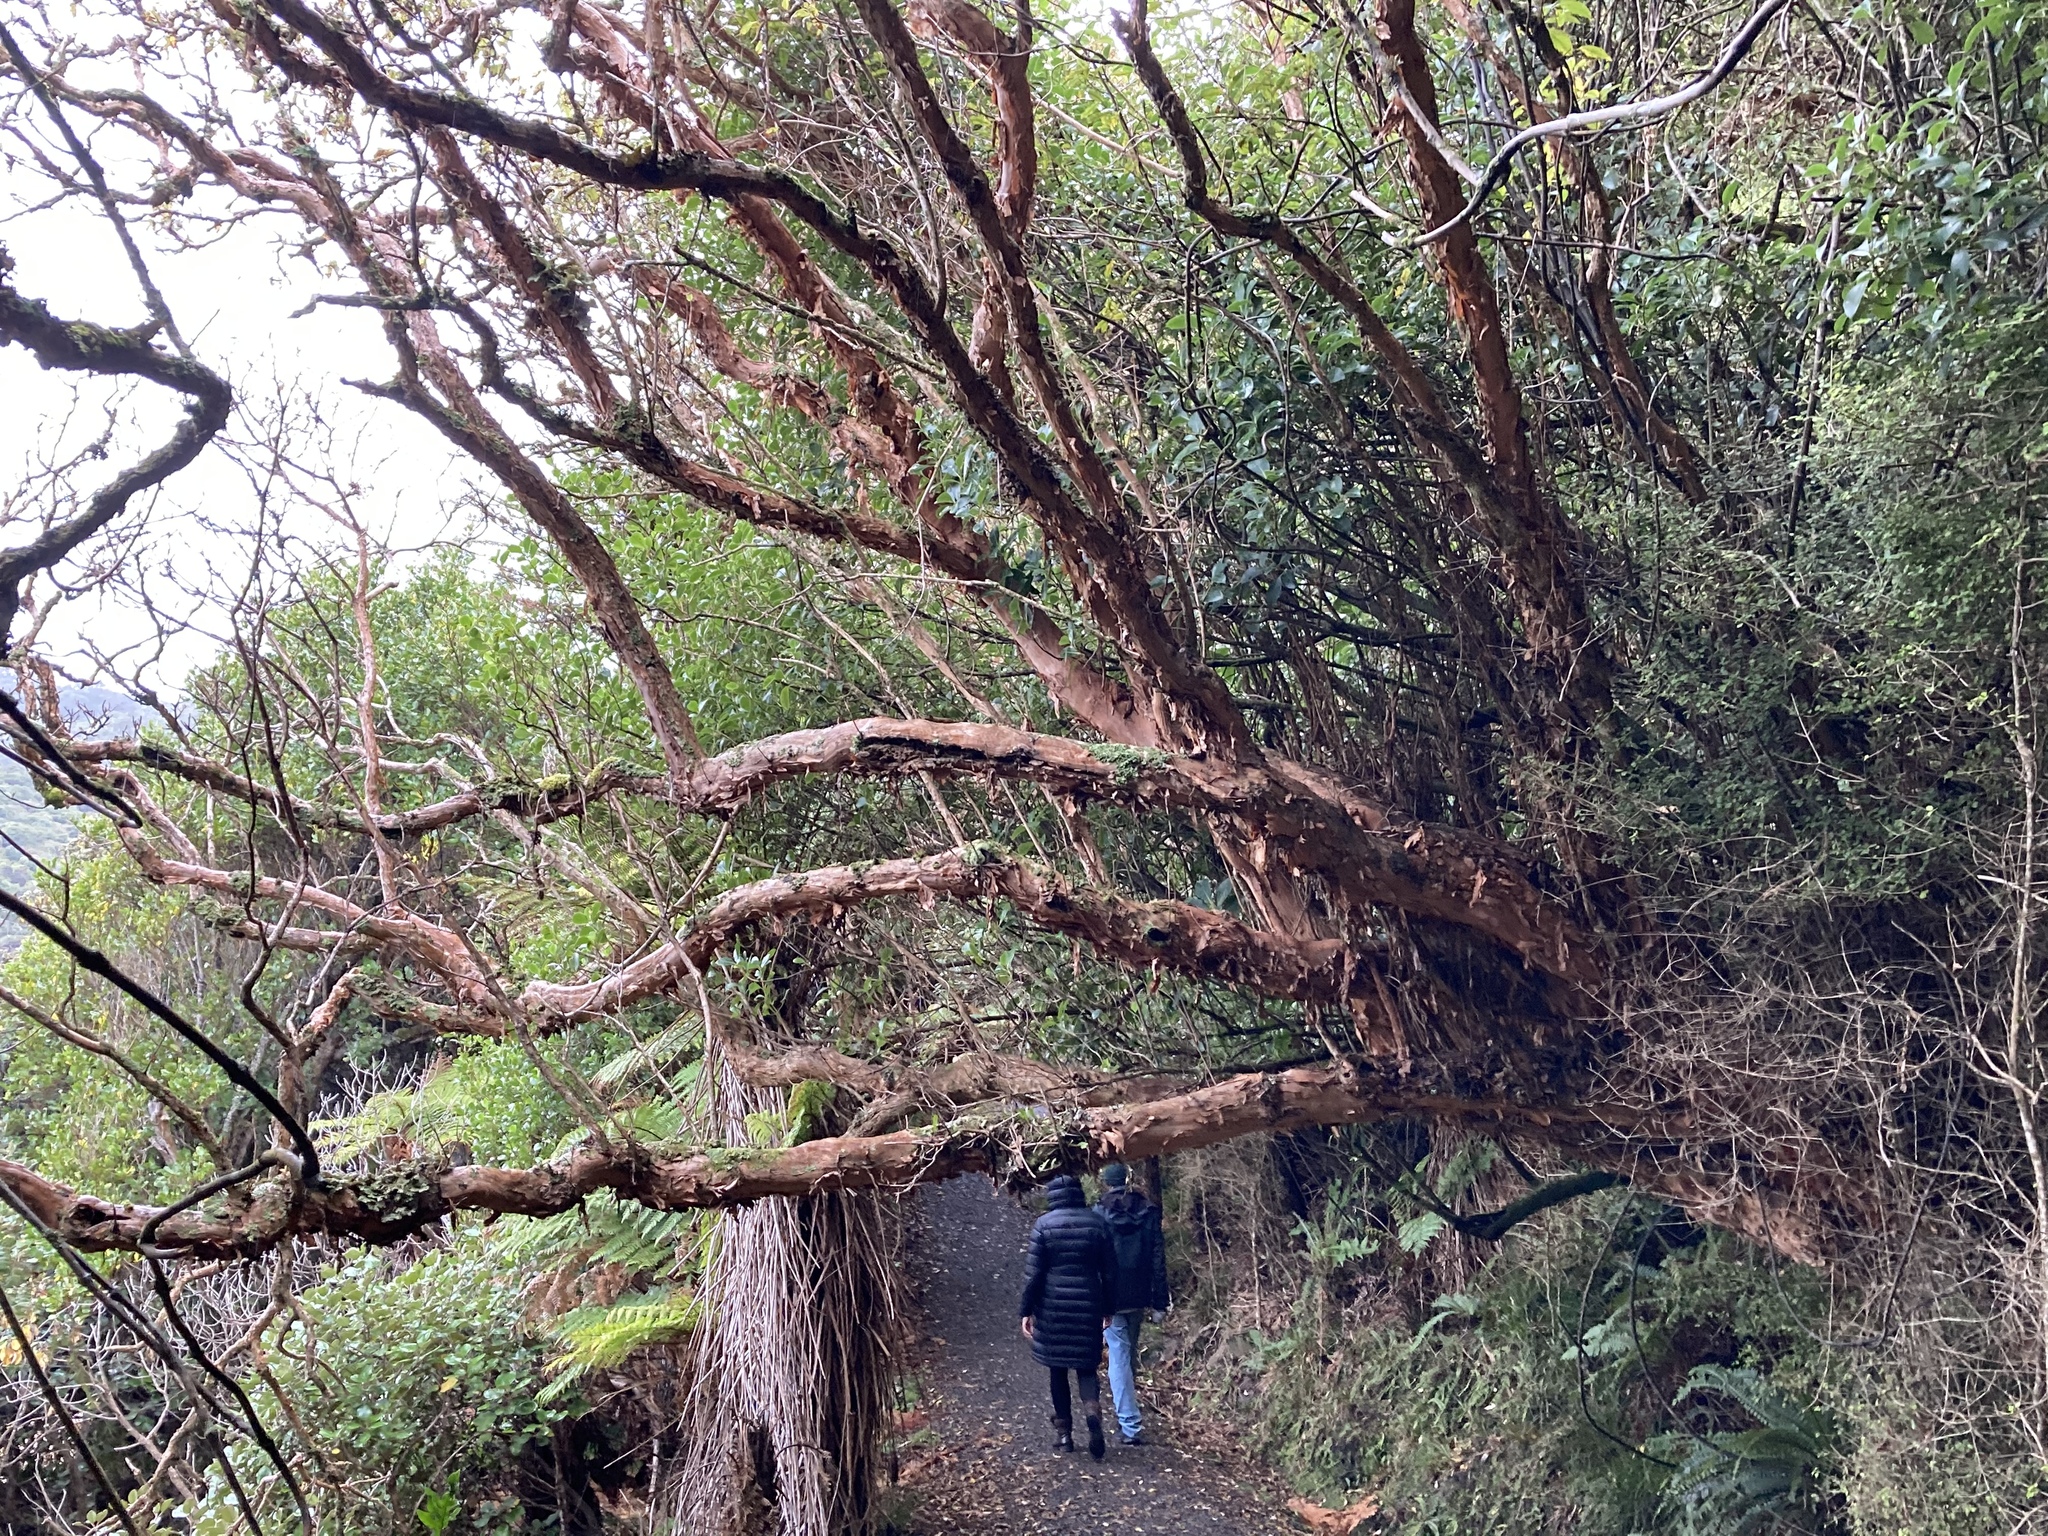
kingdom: Plantae
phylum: Tracheophyta
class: Magnoliopsida
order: Myrtales
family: Onagraceae
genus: Fuchsia
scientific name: Fuchsia excorticata
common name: Tree fuchsia
